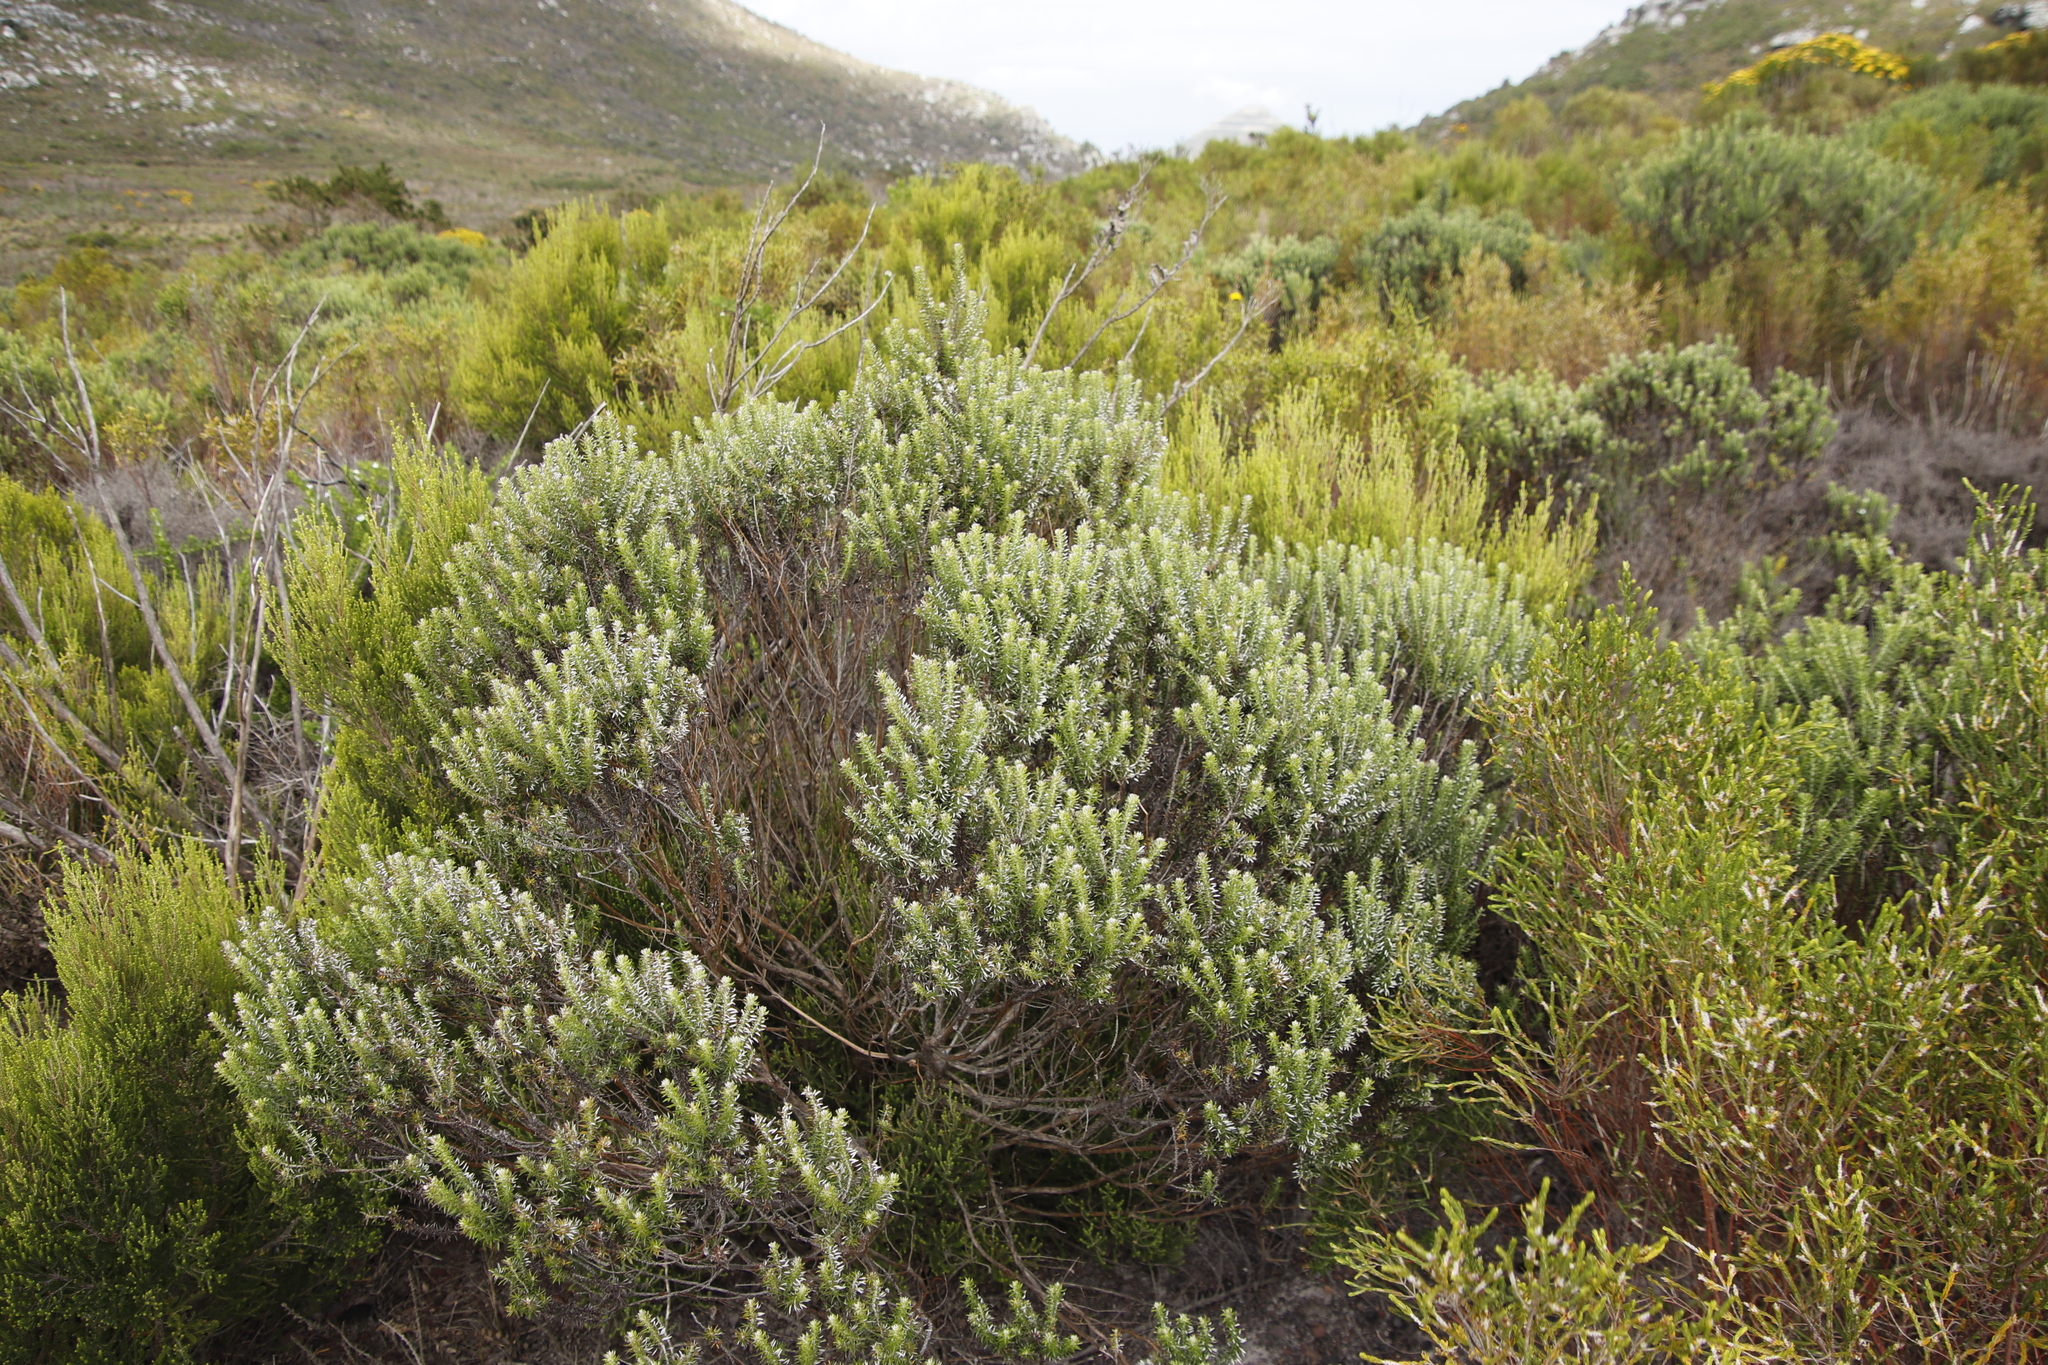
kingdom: Plantae
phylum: Tracheophyta
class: Magnoliopsida
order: Asterales
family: Asteraceae
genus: Metalasia
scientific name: Metalasia densa
